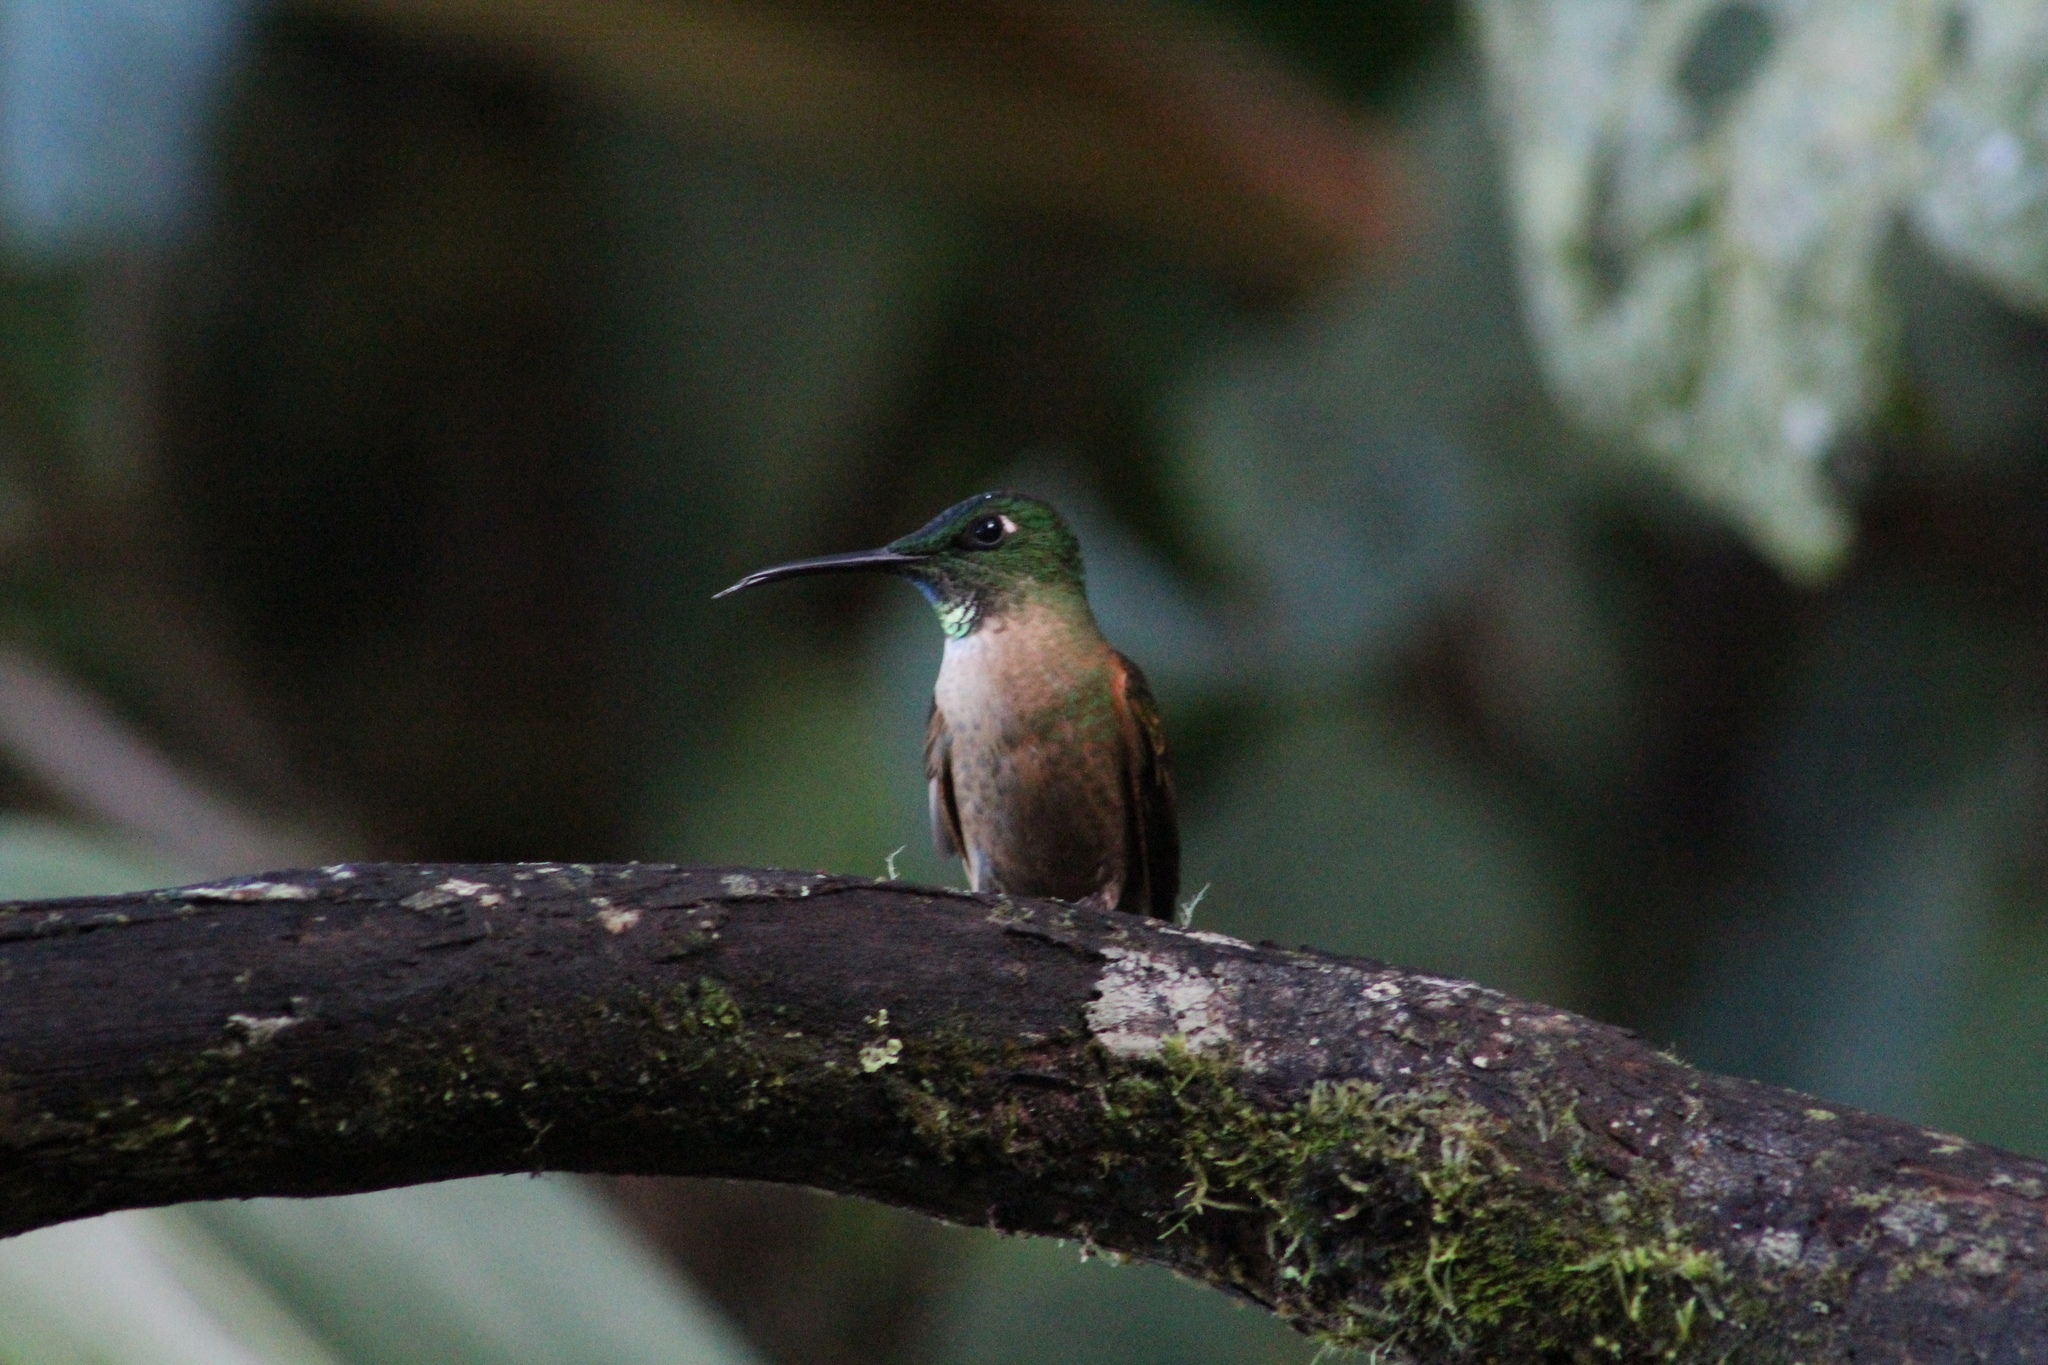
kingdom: Animalia
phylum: Chordata
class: Aves
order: Apodiformes
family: Trochilidae
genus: Heliodoxa
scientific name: Heliodoxa rubinoides
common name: Fawn-breasted brilliant
